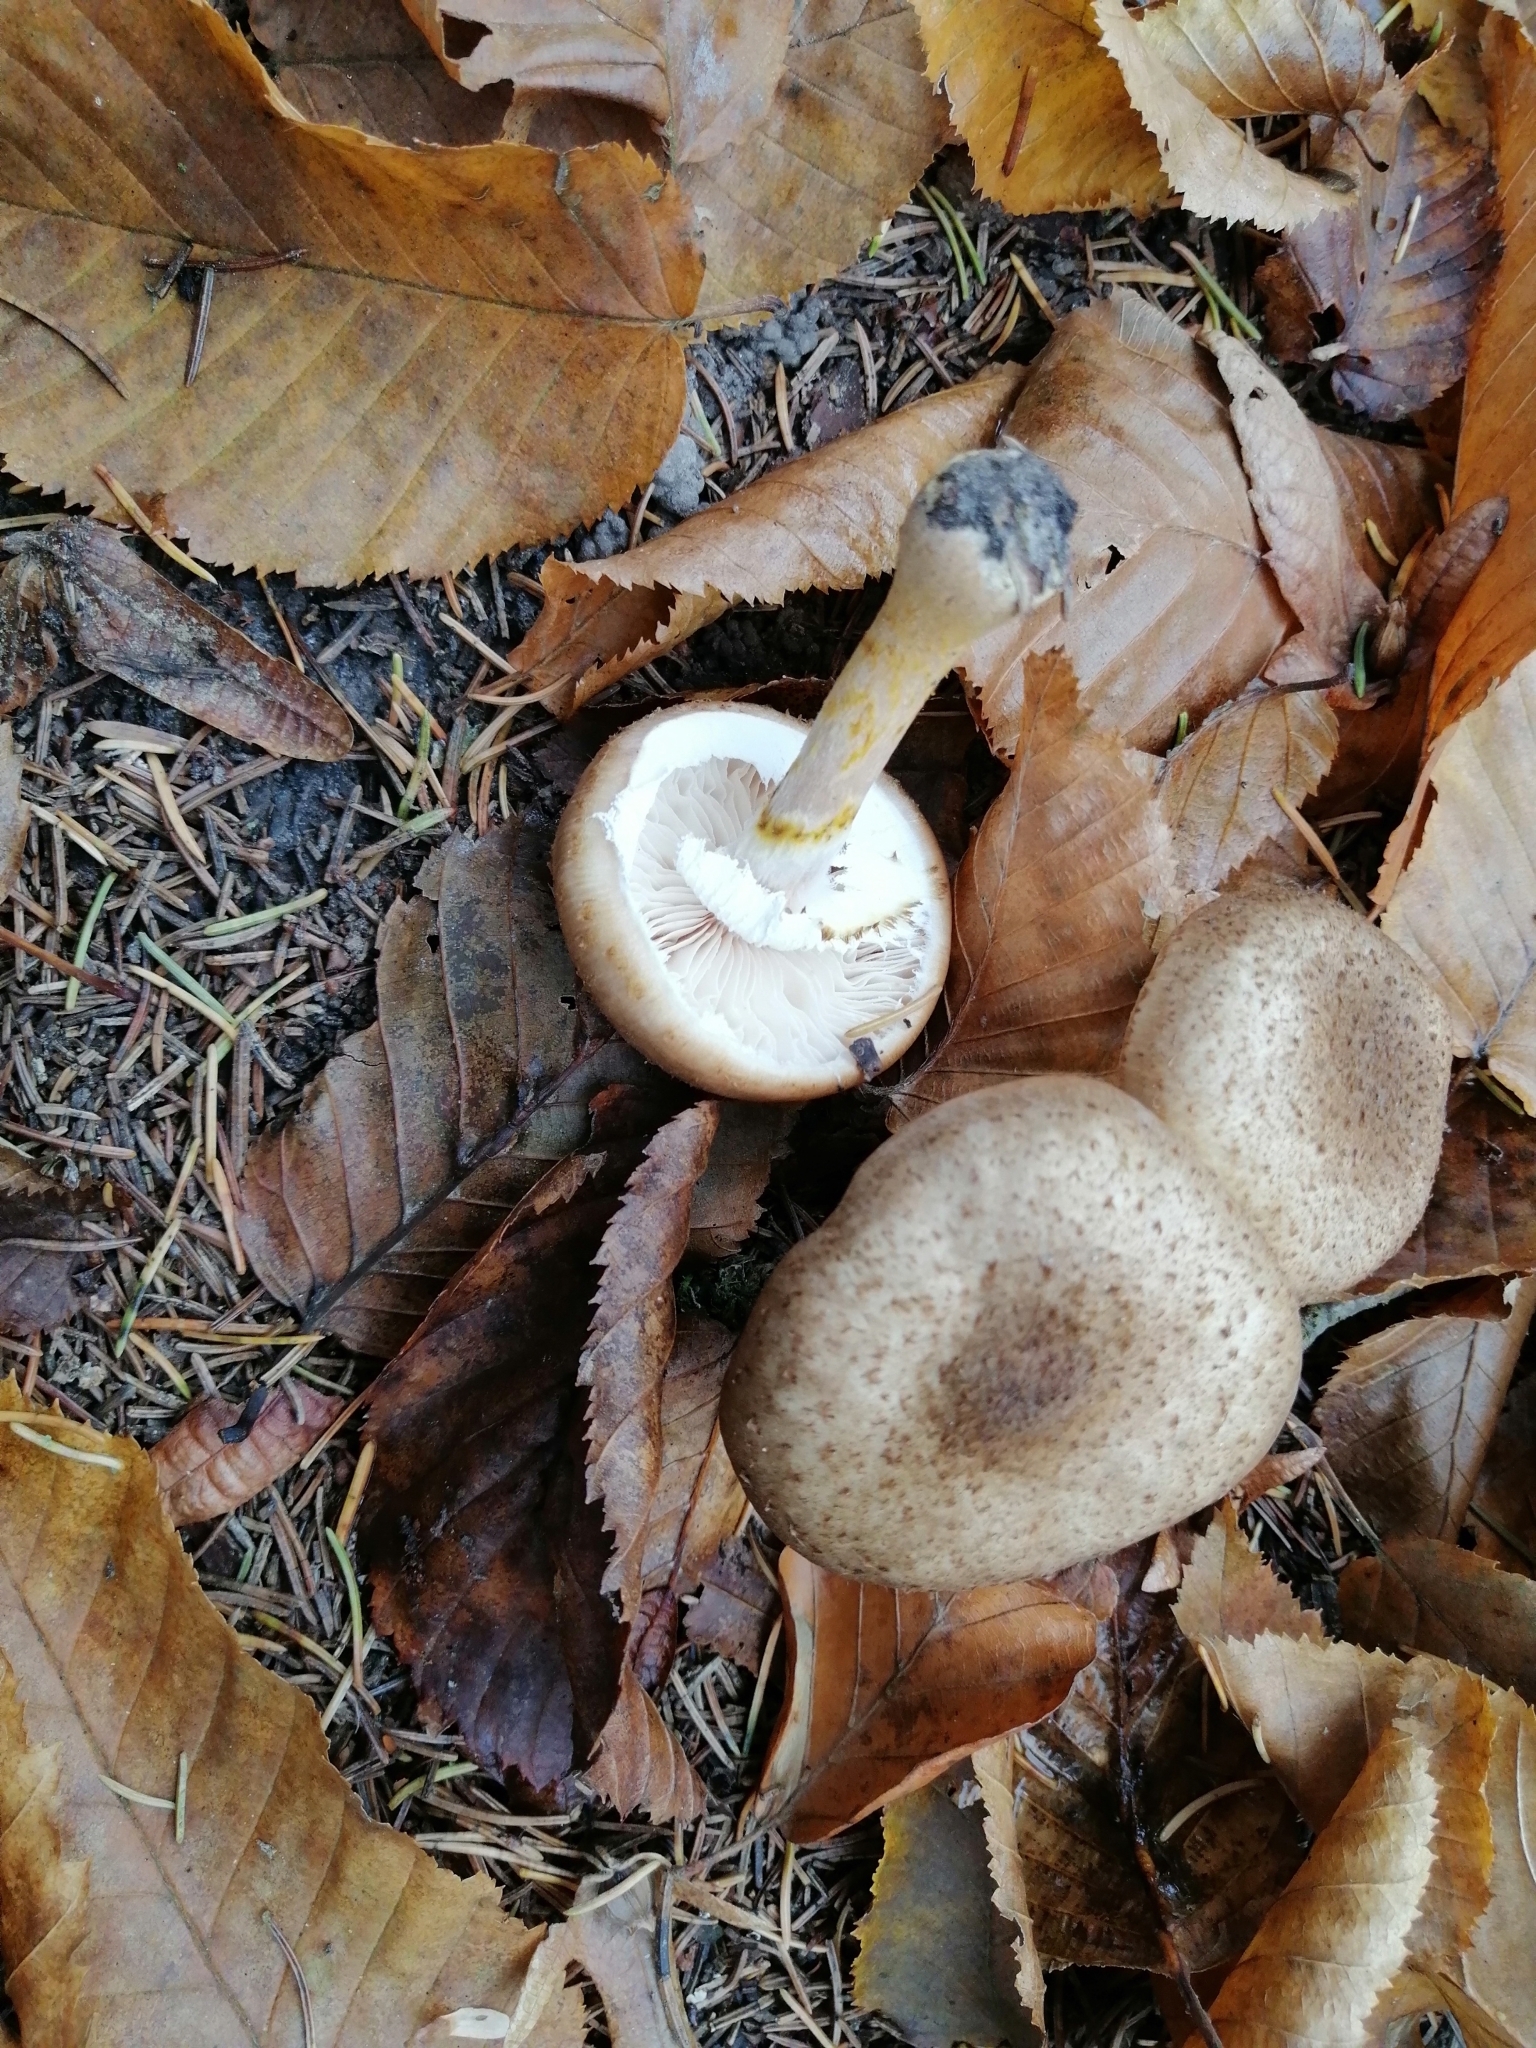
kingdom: Fungi
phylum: Basidiomycota
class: Agaricomycetes
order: Agaricales
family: Physalacriaceae
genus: Armillaria
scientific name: Armillaria cepistipes
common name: Mullet honey fungus
